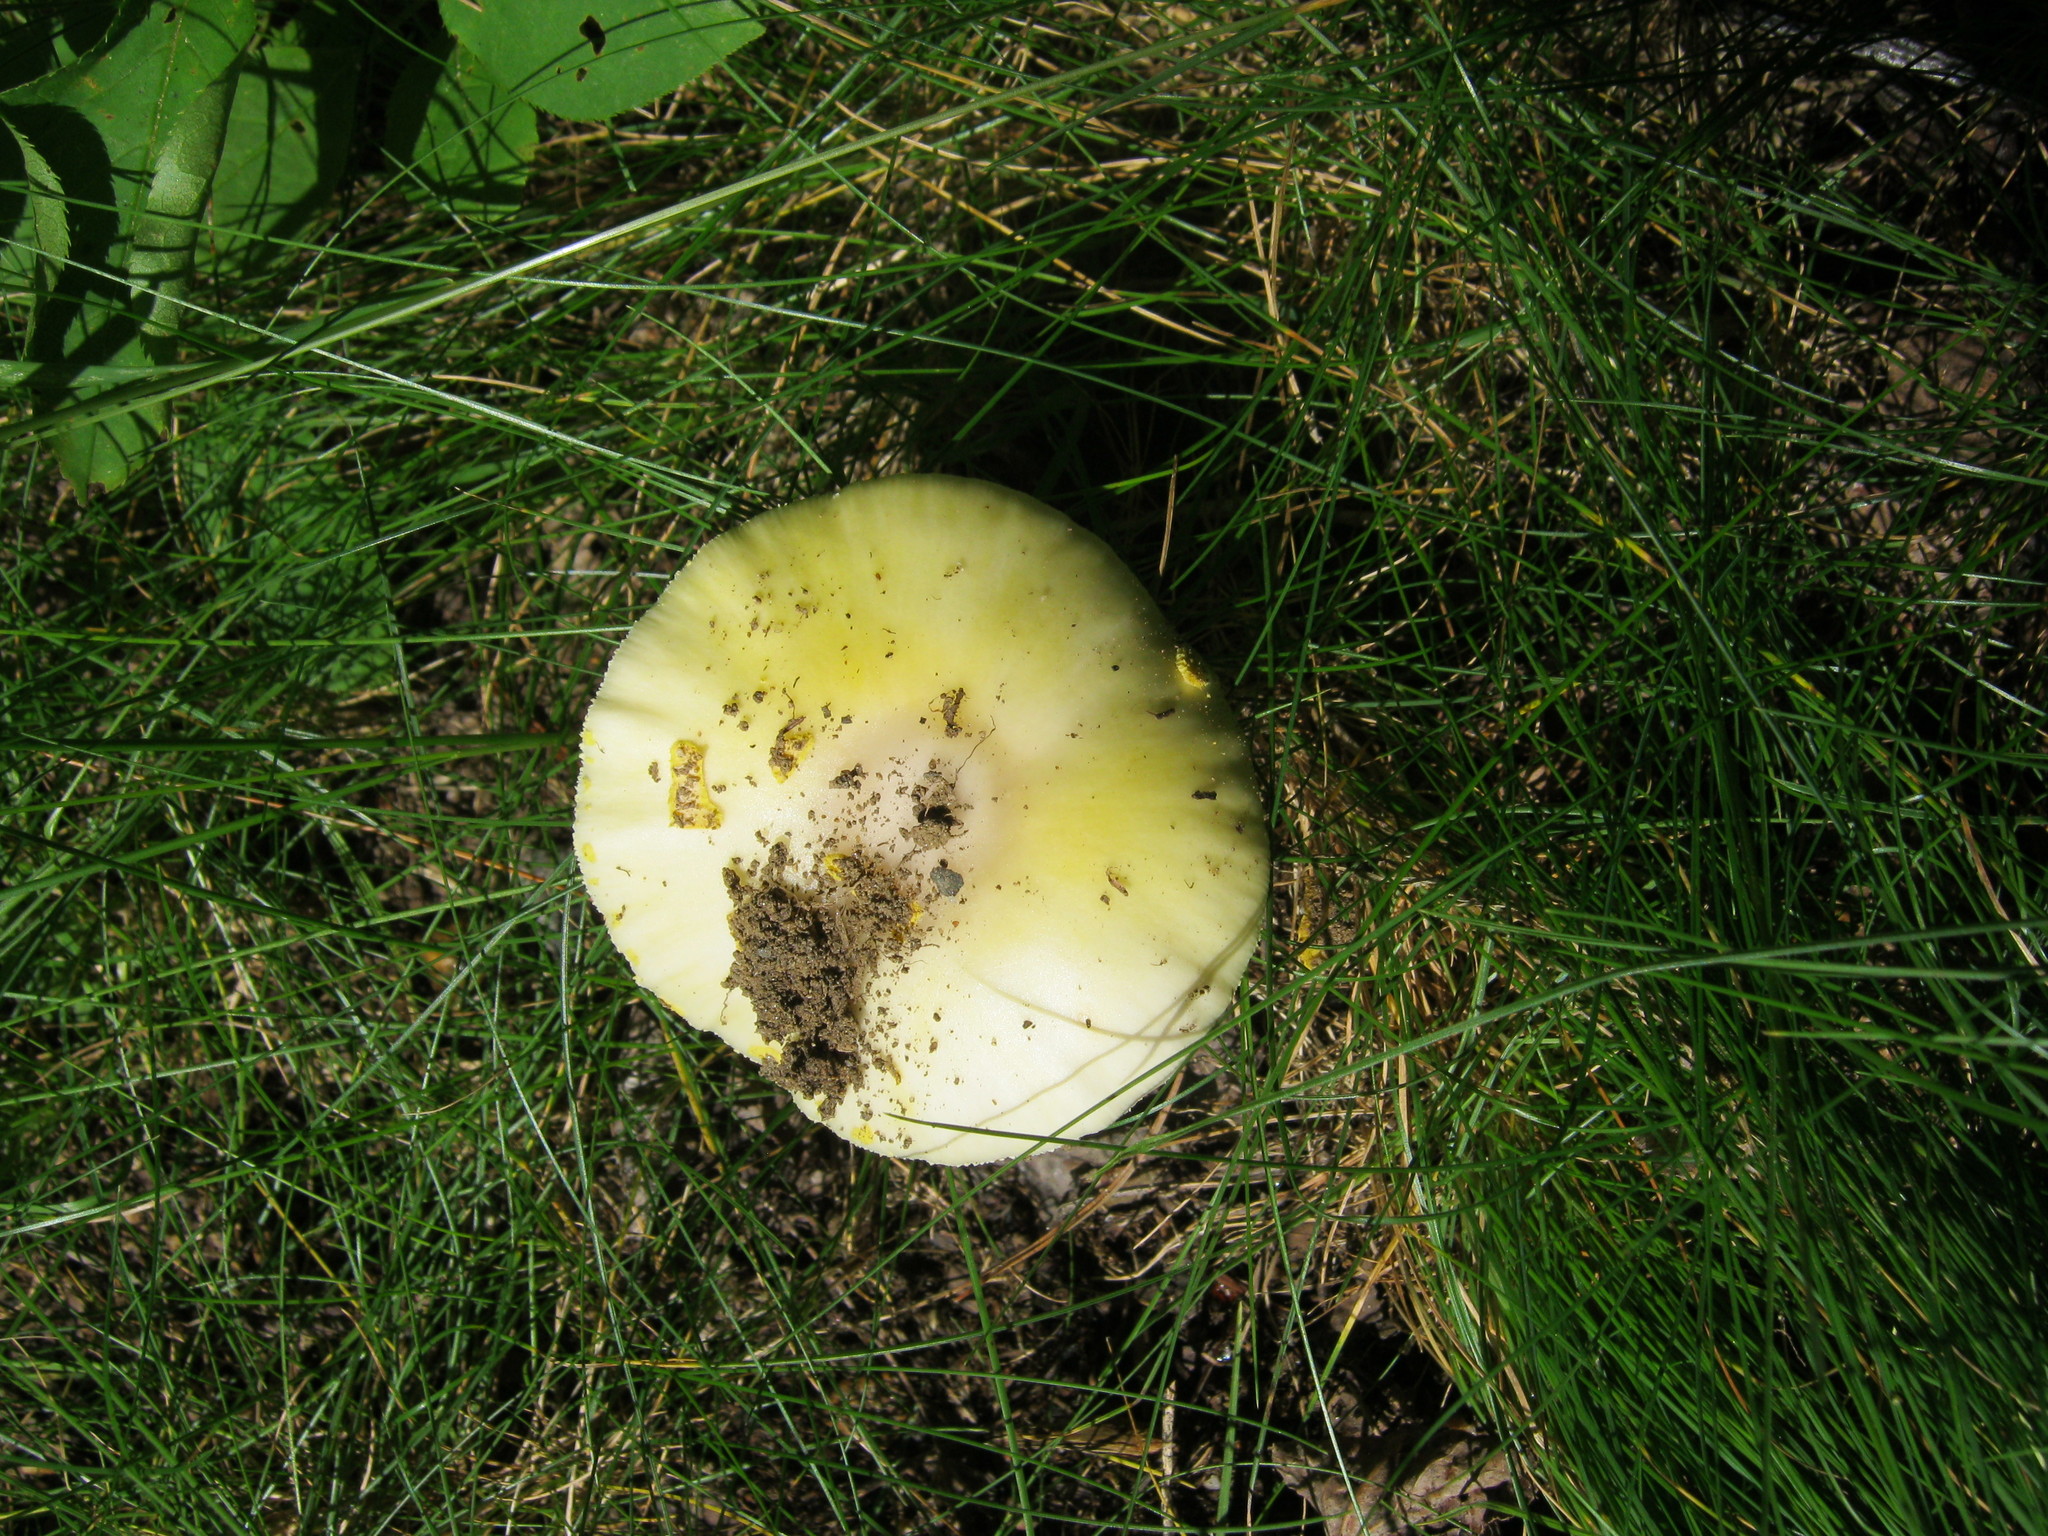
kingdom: Fungi
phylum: Basidiomycota
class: Agaricomycetes
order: Agaricales
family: Amanitaceae
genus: Amanita
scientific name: Amanita flavorubens
